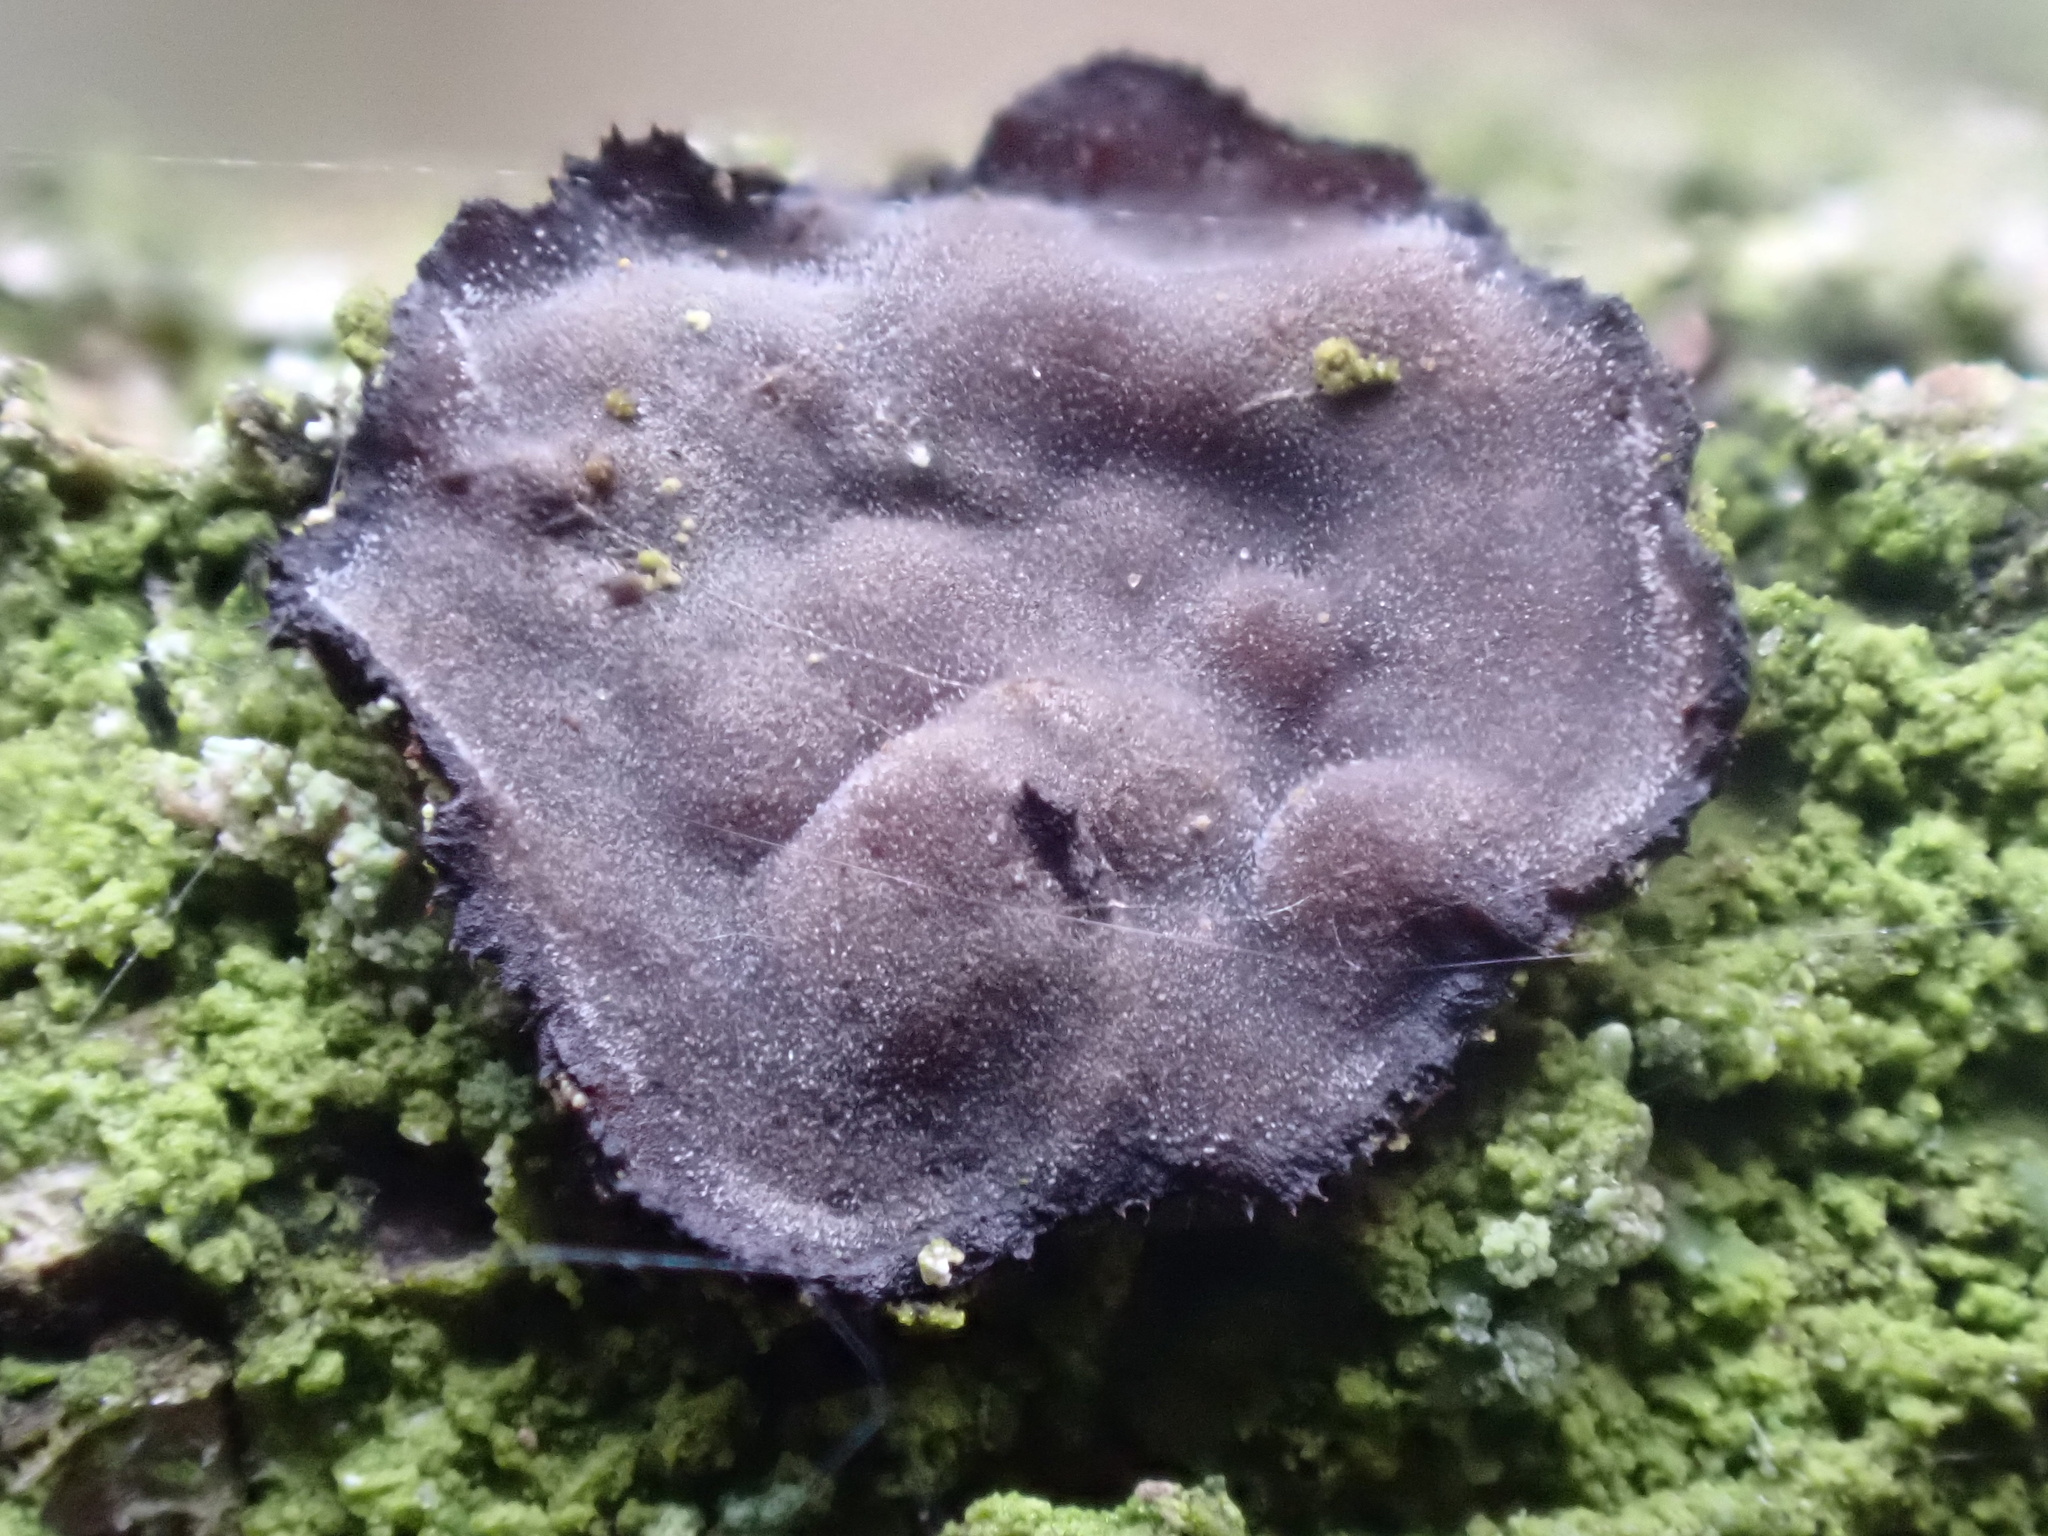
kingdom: Fungi
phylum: Basidiomycota
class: Agaricomycetes
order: Russulales
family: Peniophoraceae
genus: Peniophora
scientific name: Peniophora quercina
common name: Oak crust
